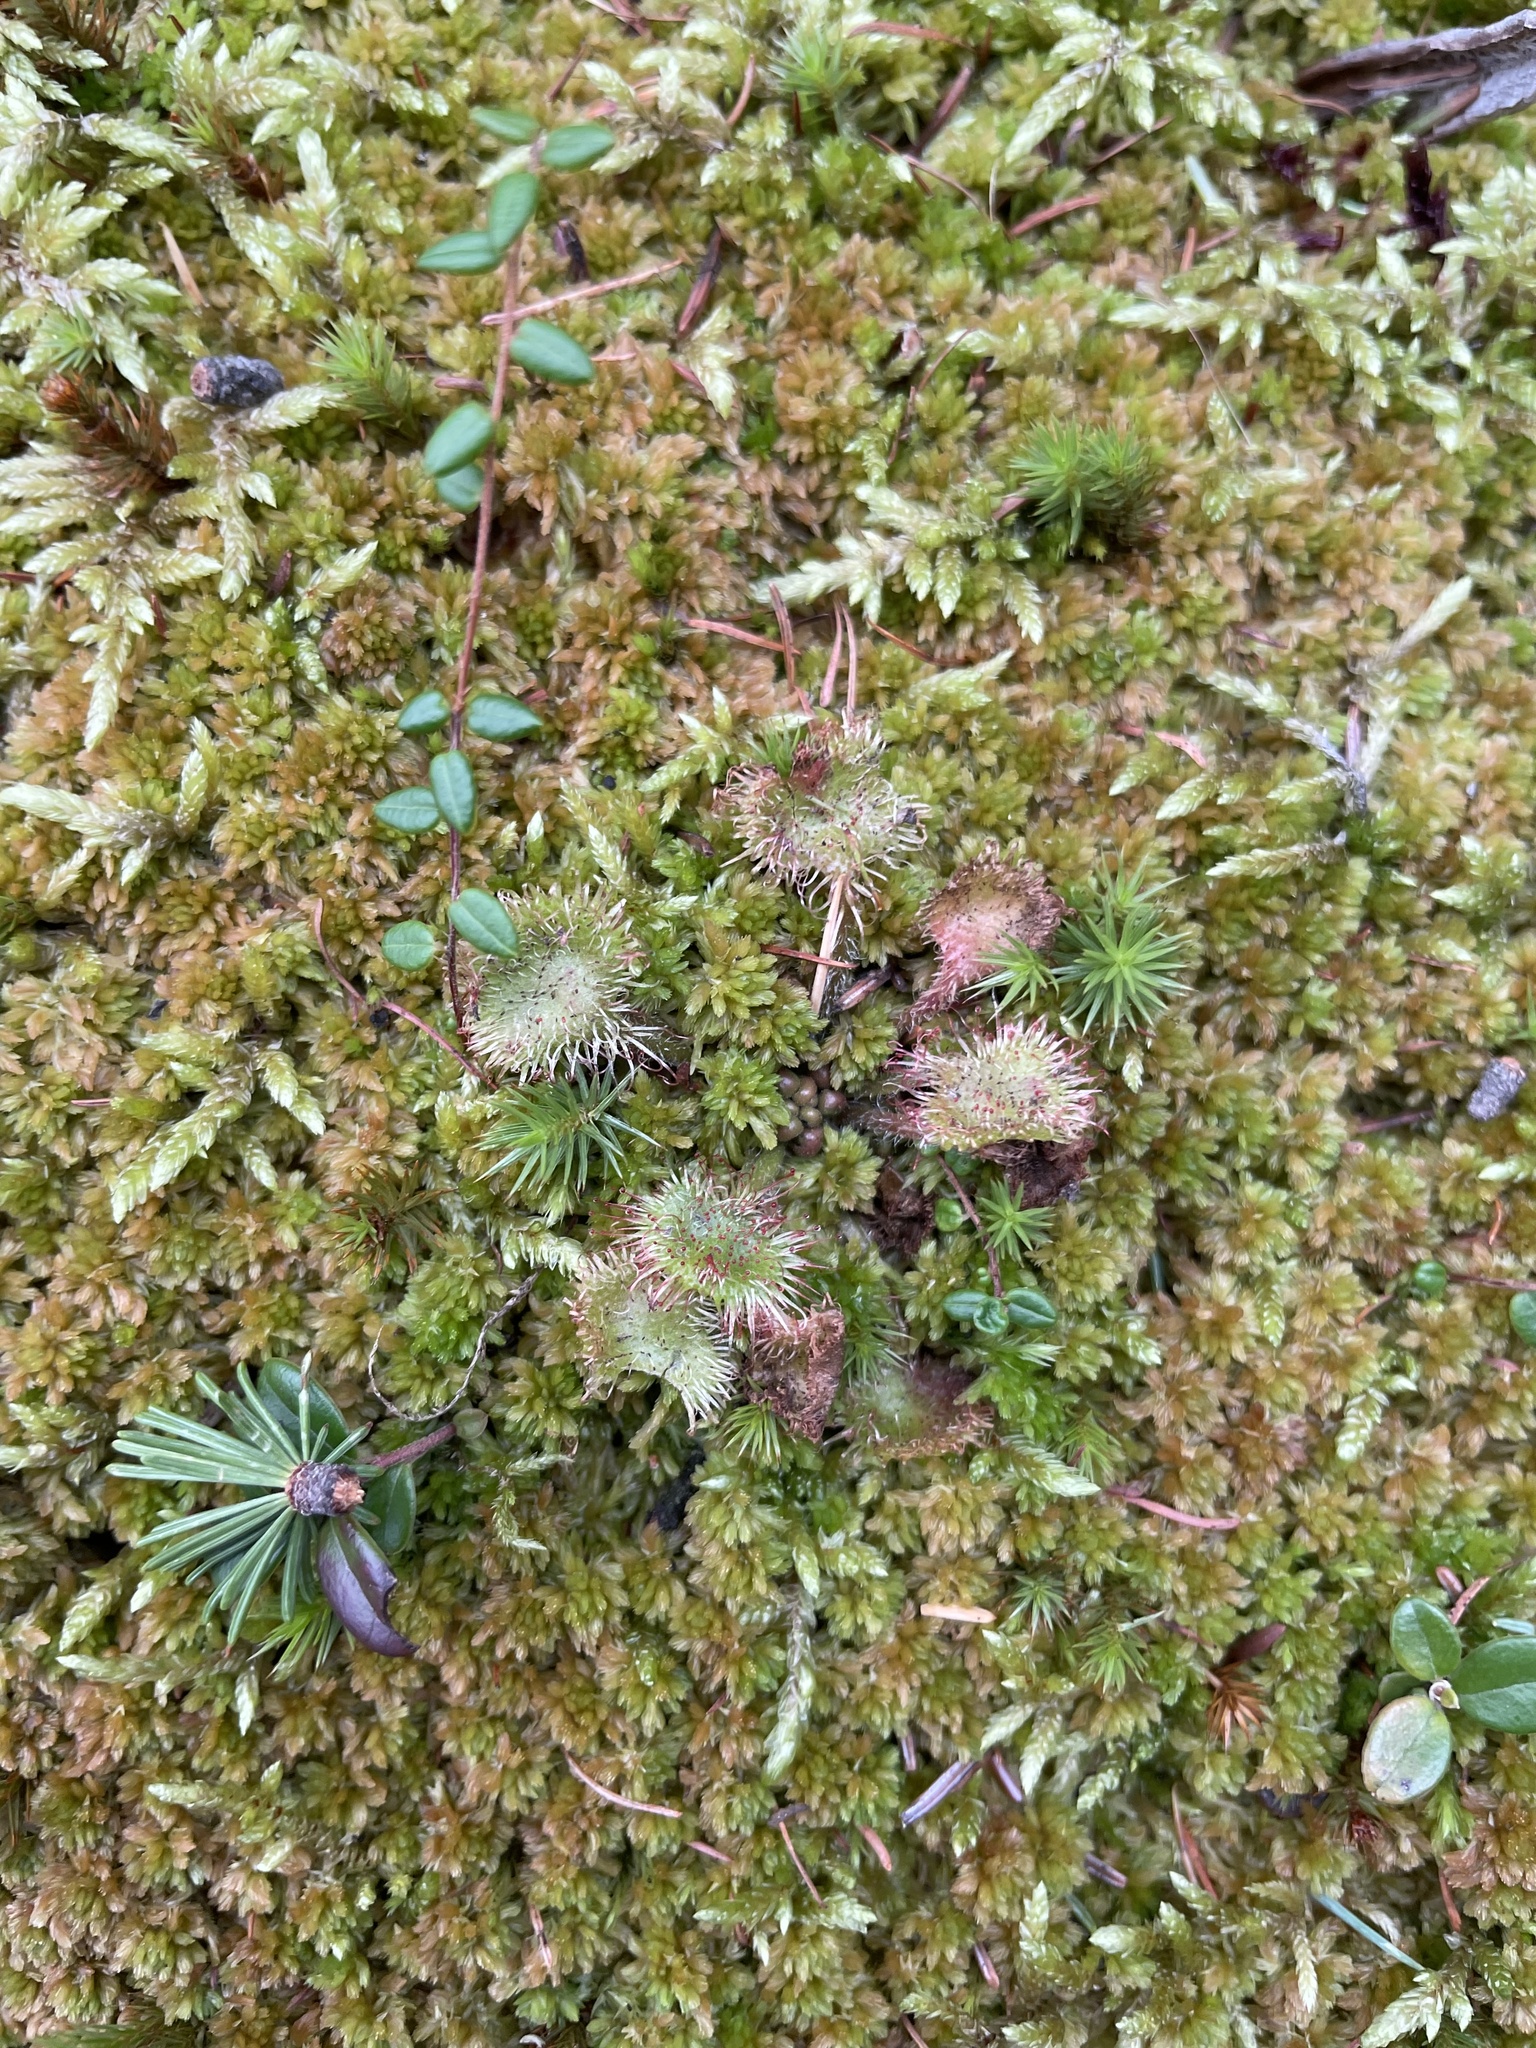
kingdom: Plantae
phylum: Tracheophyta
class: Magnoliopsida
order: Caryophyllales
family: Droseraceae
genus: Drosera
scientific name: Drosera rotundifolia
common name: Round-leaved sundew
